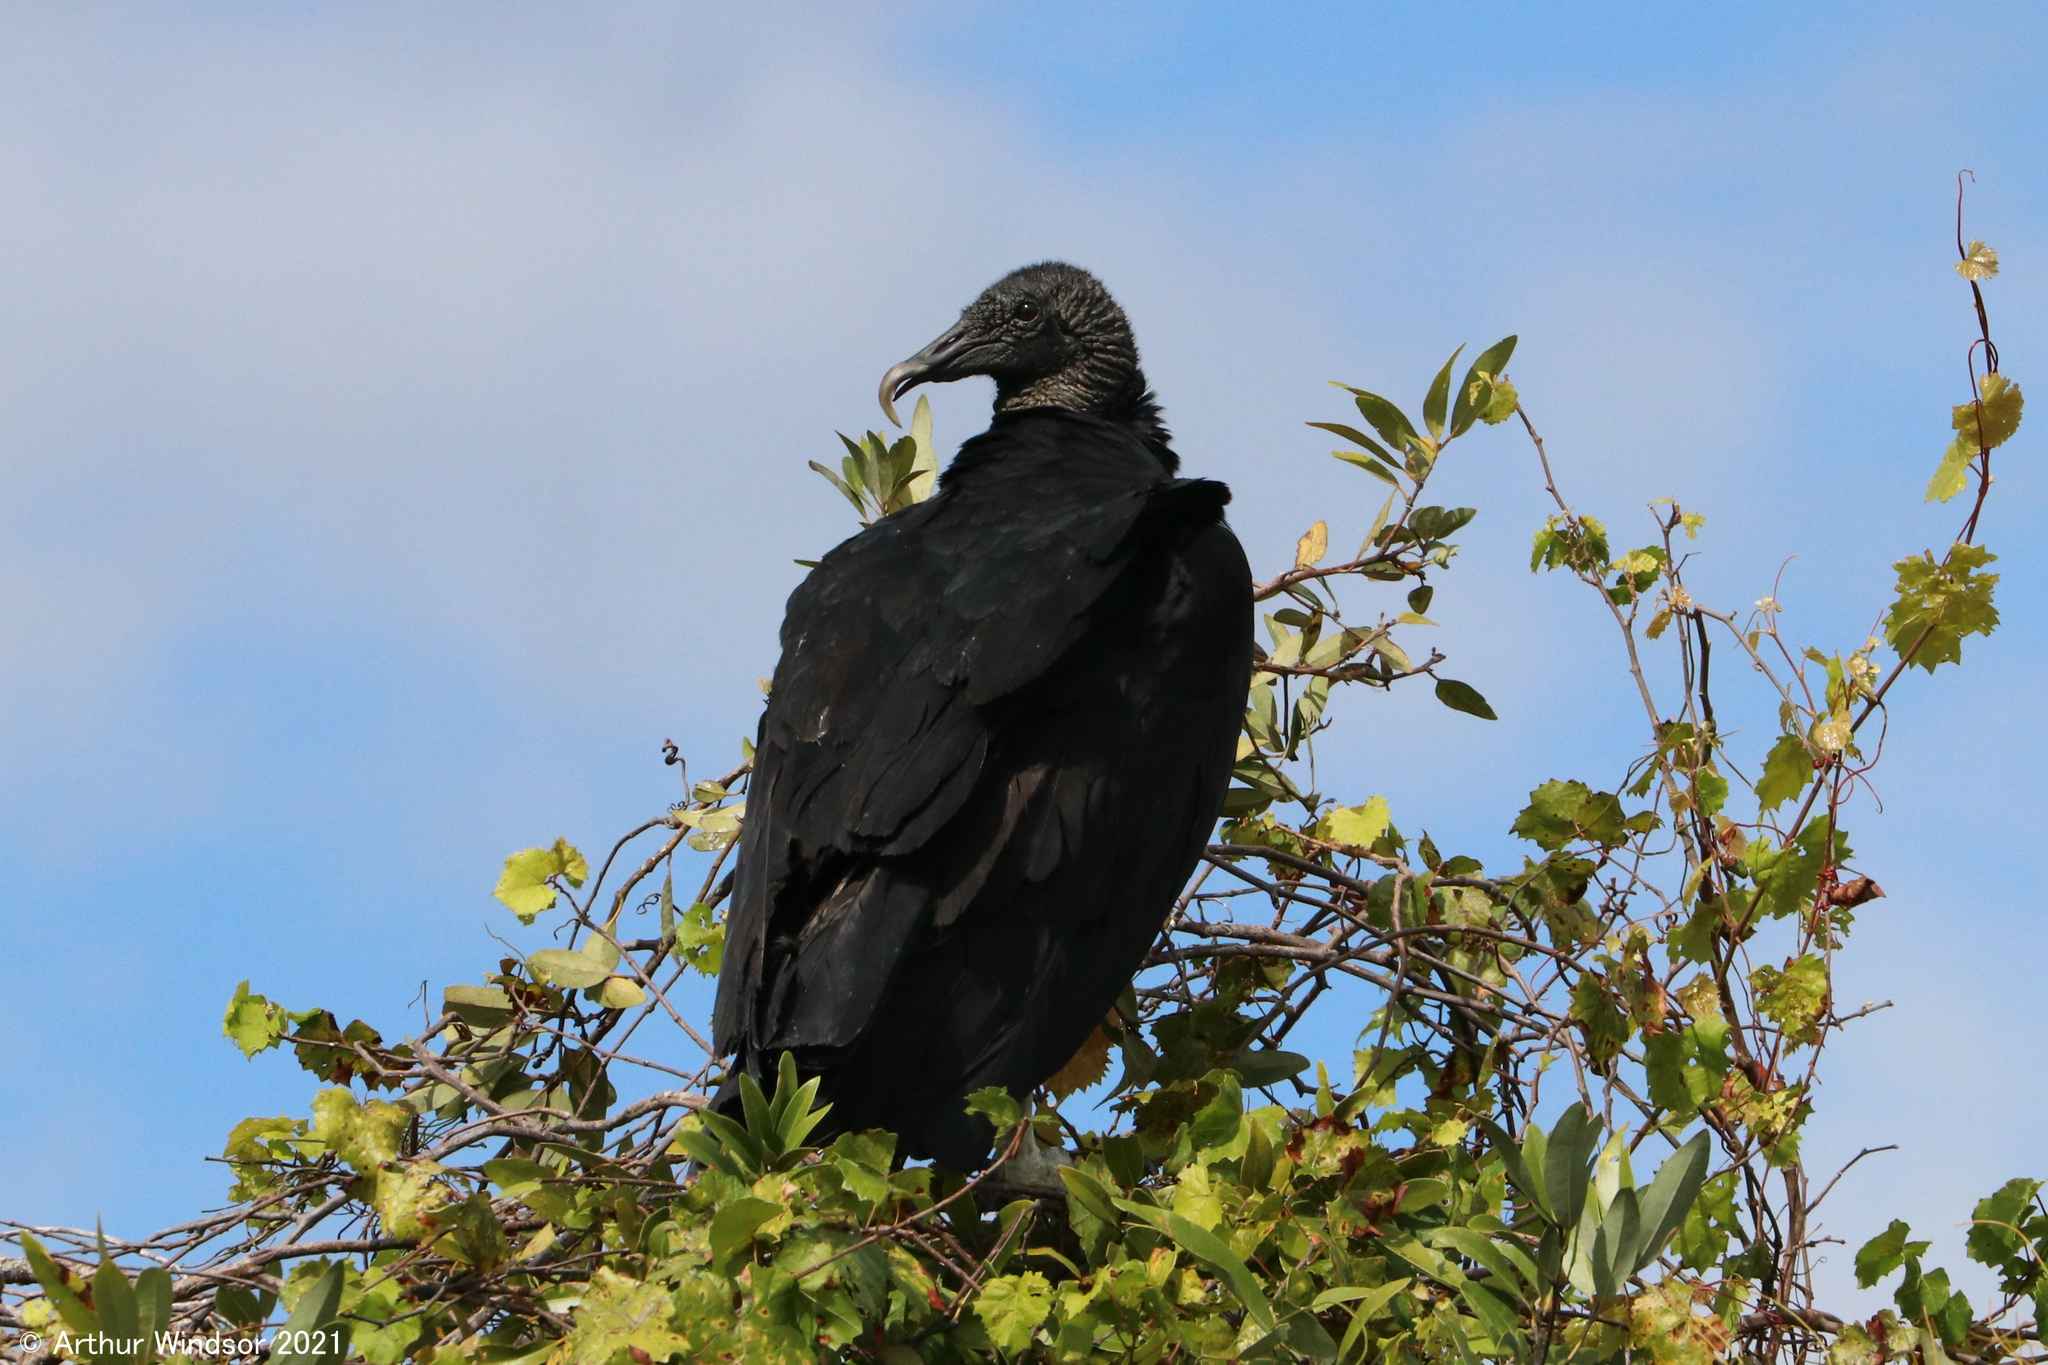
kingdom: Animalia
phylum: Chordata
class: Aves
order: Accipitriformes
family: Cathartidae
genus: Coragyps
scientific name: Coragyps atratus
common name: Black vulture
